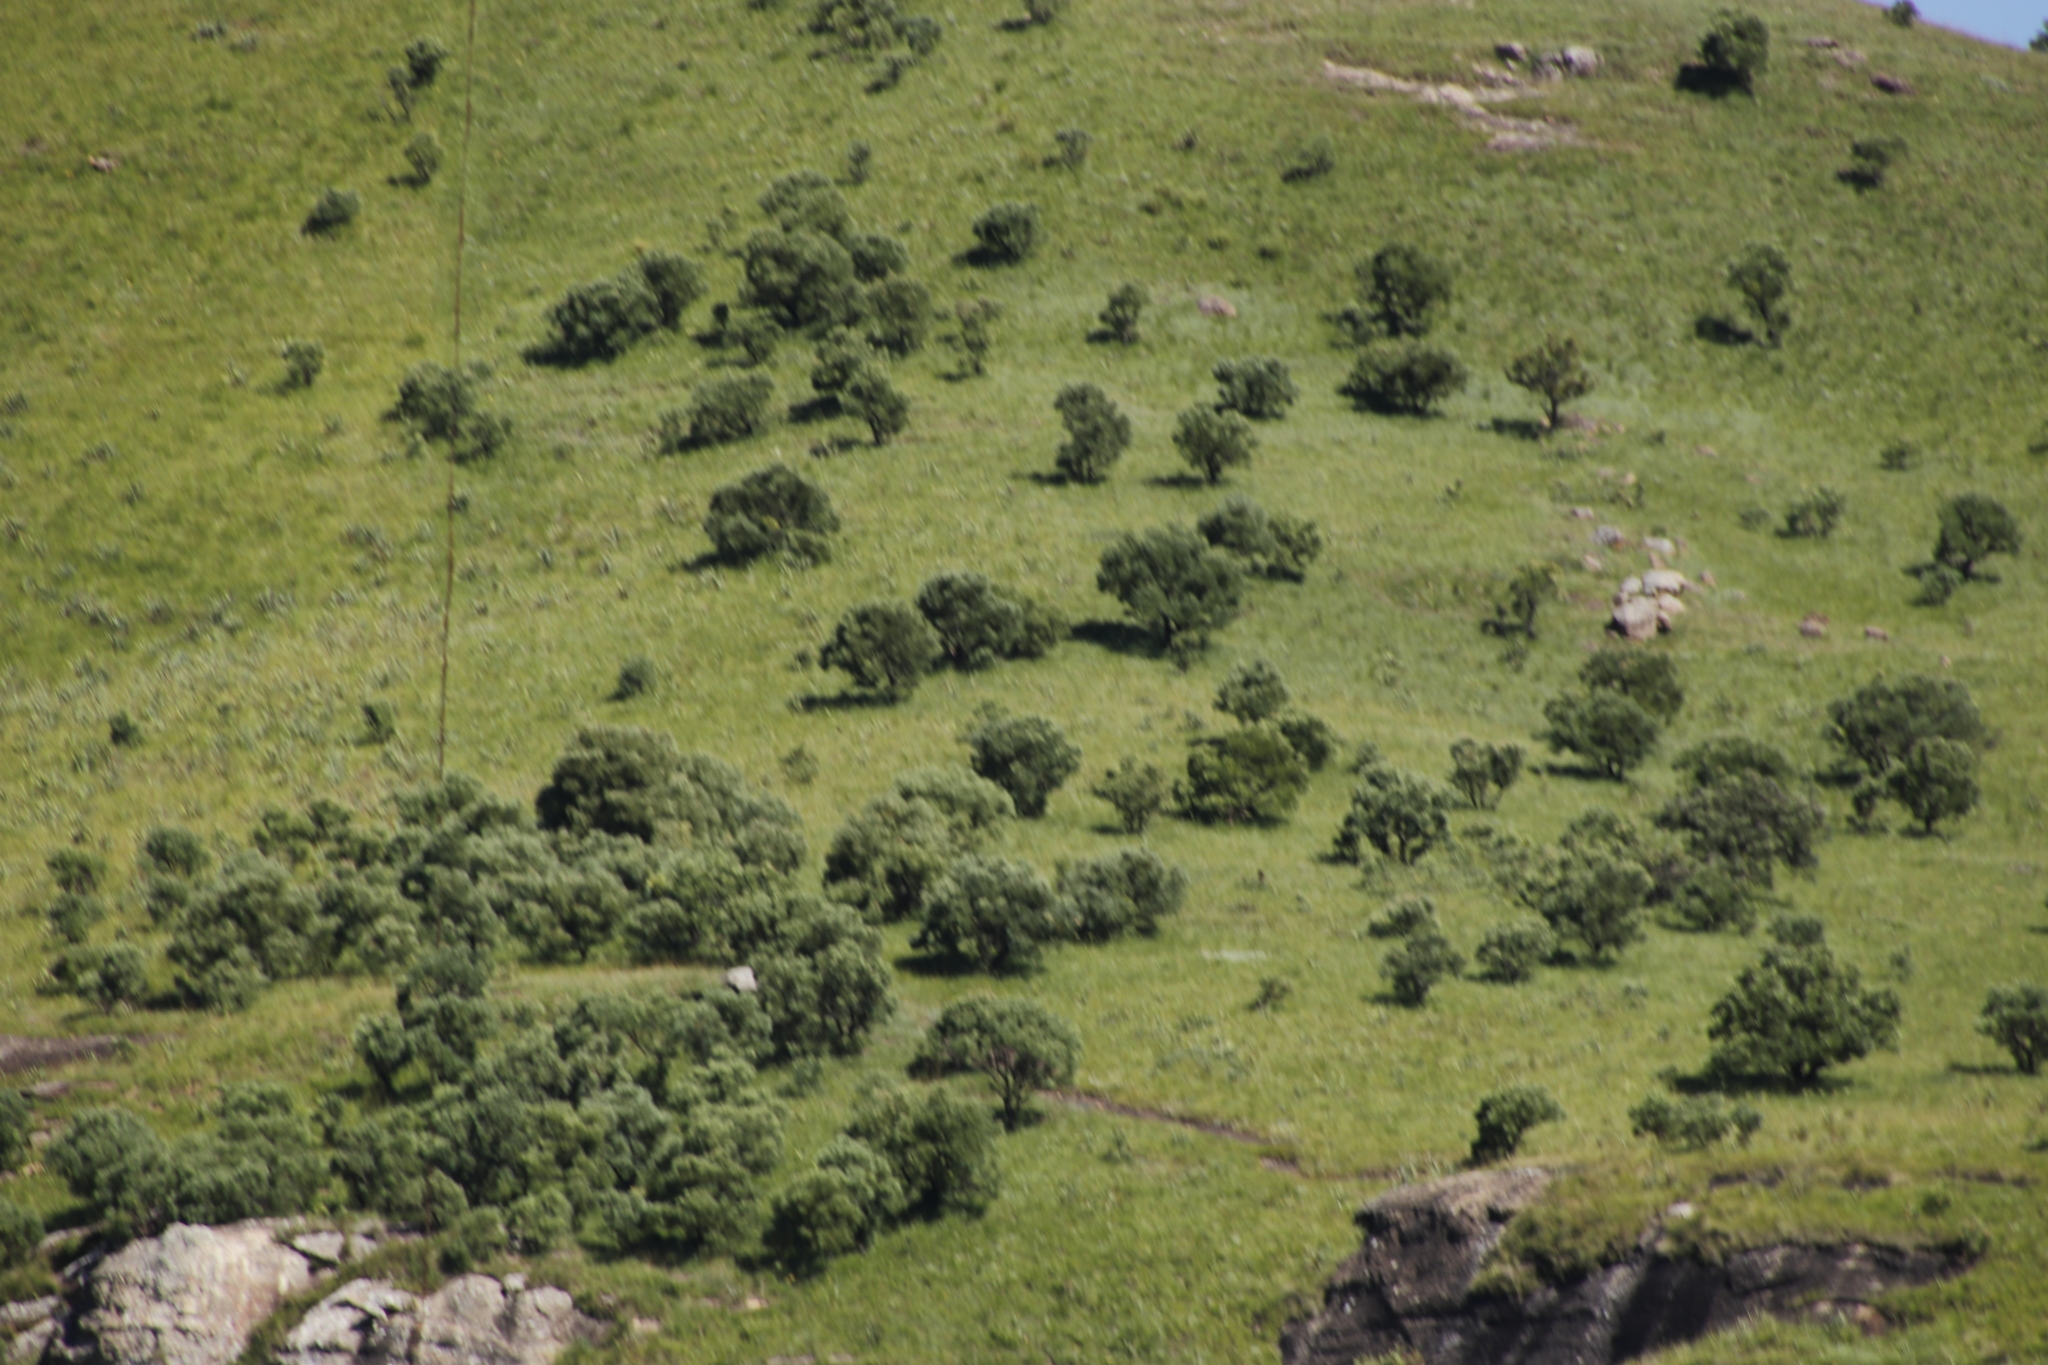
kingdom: Plantae
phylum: Tracheophyta
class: Magnoliopsida
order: Proteales
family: Proteaceae
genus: Protea
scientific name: Protea caffra
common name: Common sugarbush
